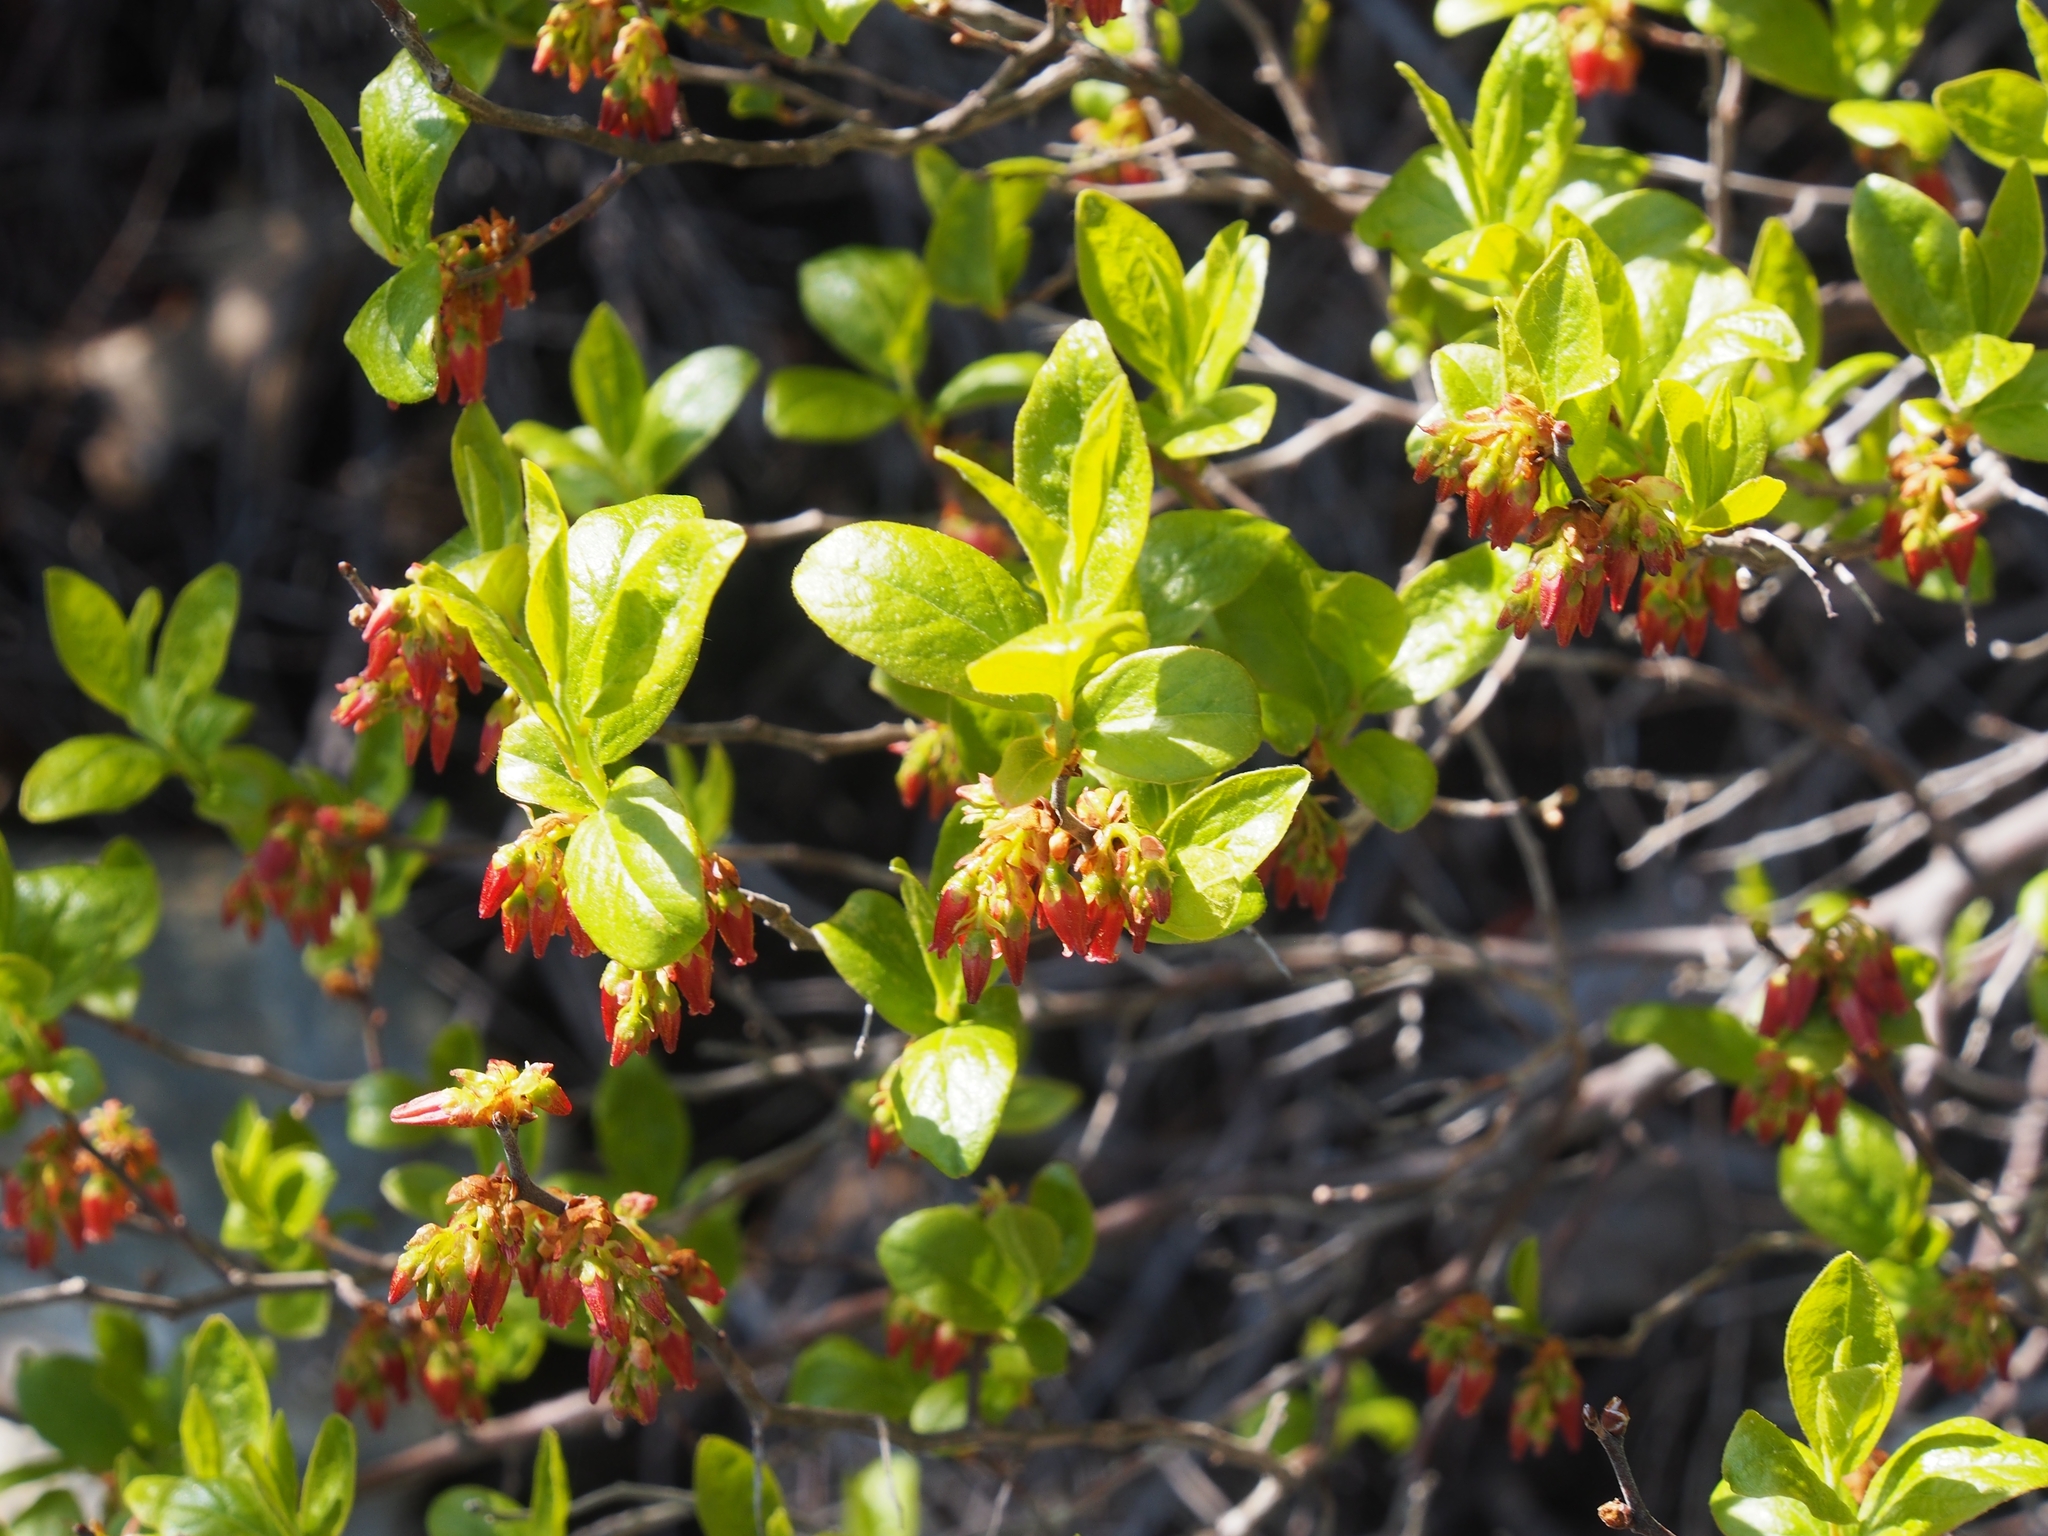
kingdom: Plantae
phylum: Tracheophyta
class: Magnoliopsida
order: Ericales
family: Ericaceae
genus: Gaylussacia
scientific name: Gaylussacia baccata
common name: Black huckleberry
